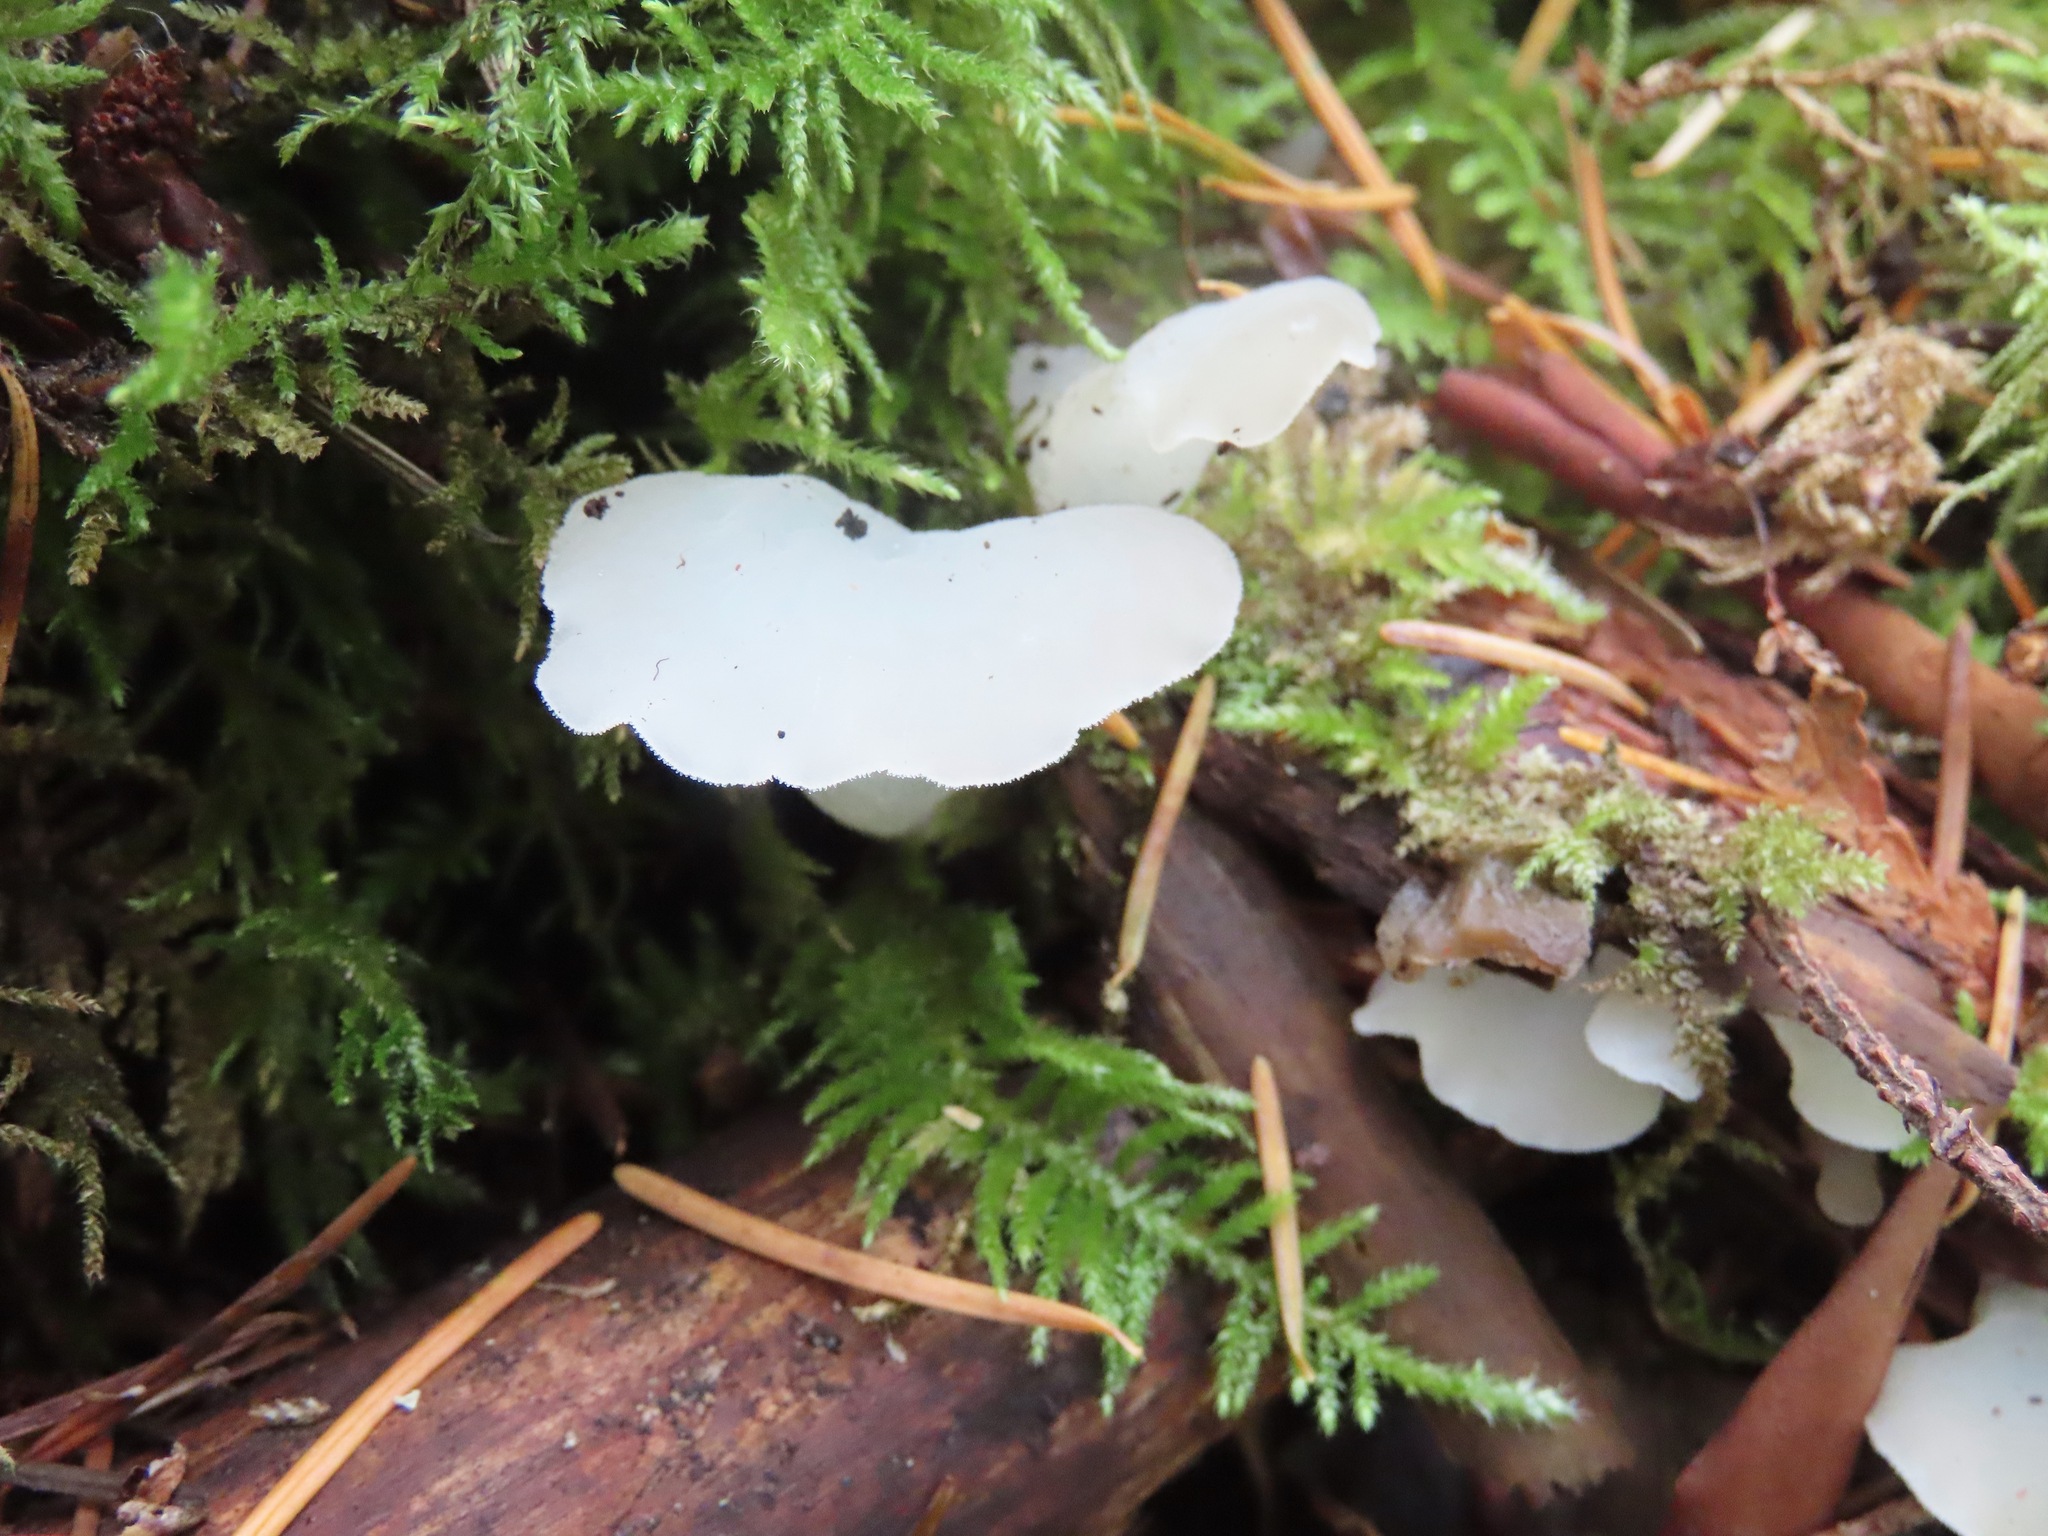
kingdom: Fungi
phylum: Basidiomycota
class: Agaricomycetes
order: Auriculariales
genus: Pseudohydnum
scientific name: Pseudohydnum gelatinosum
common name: Jelly tongue
